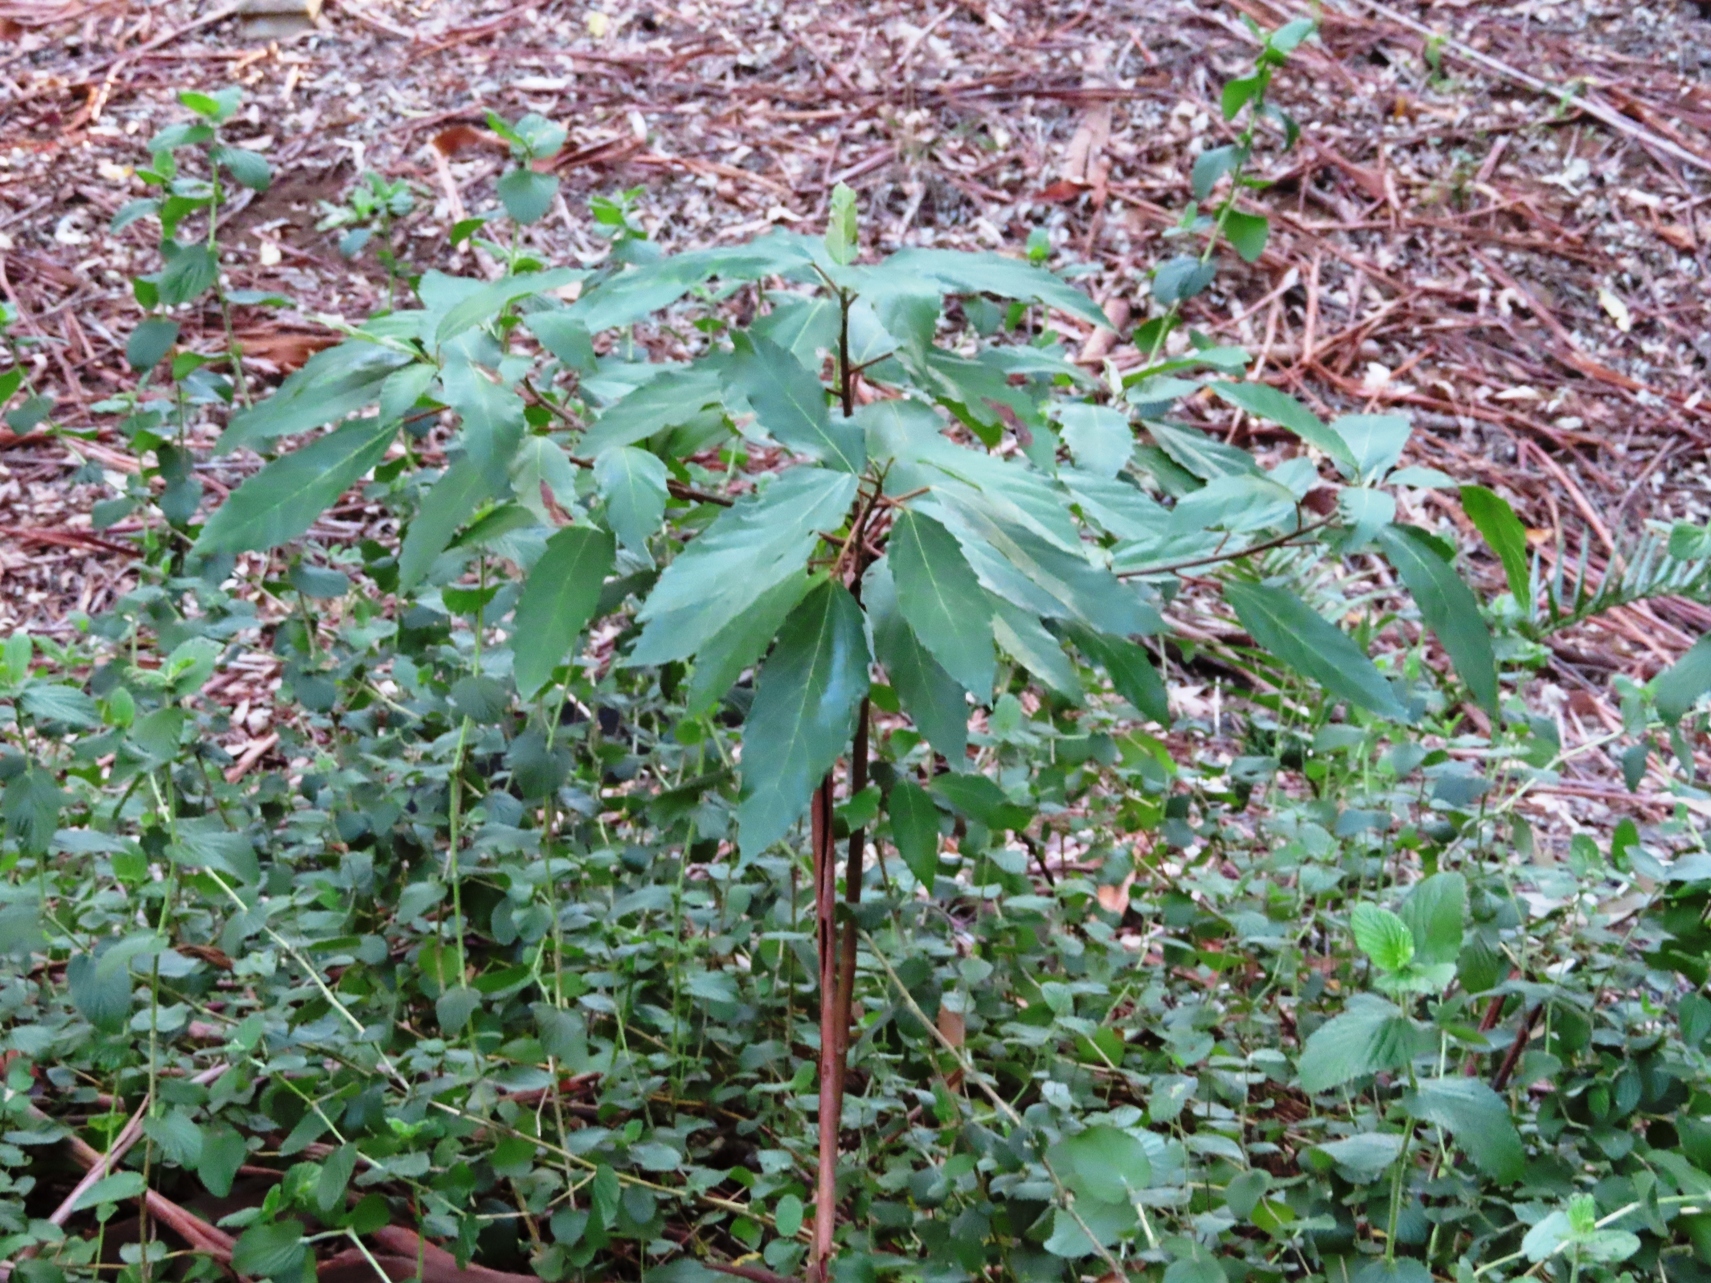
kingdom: Plantae
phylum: Tracheophyta
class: Magnoliopsida
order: Rosales
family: Moraceae
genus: Ficus
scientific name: Ficus sur
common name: Cape fig
